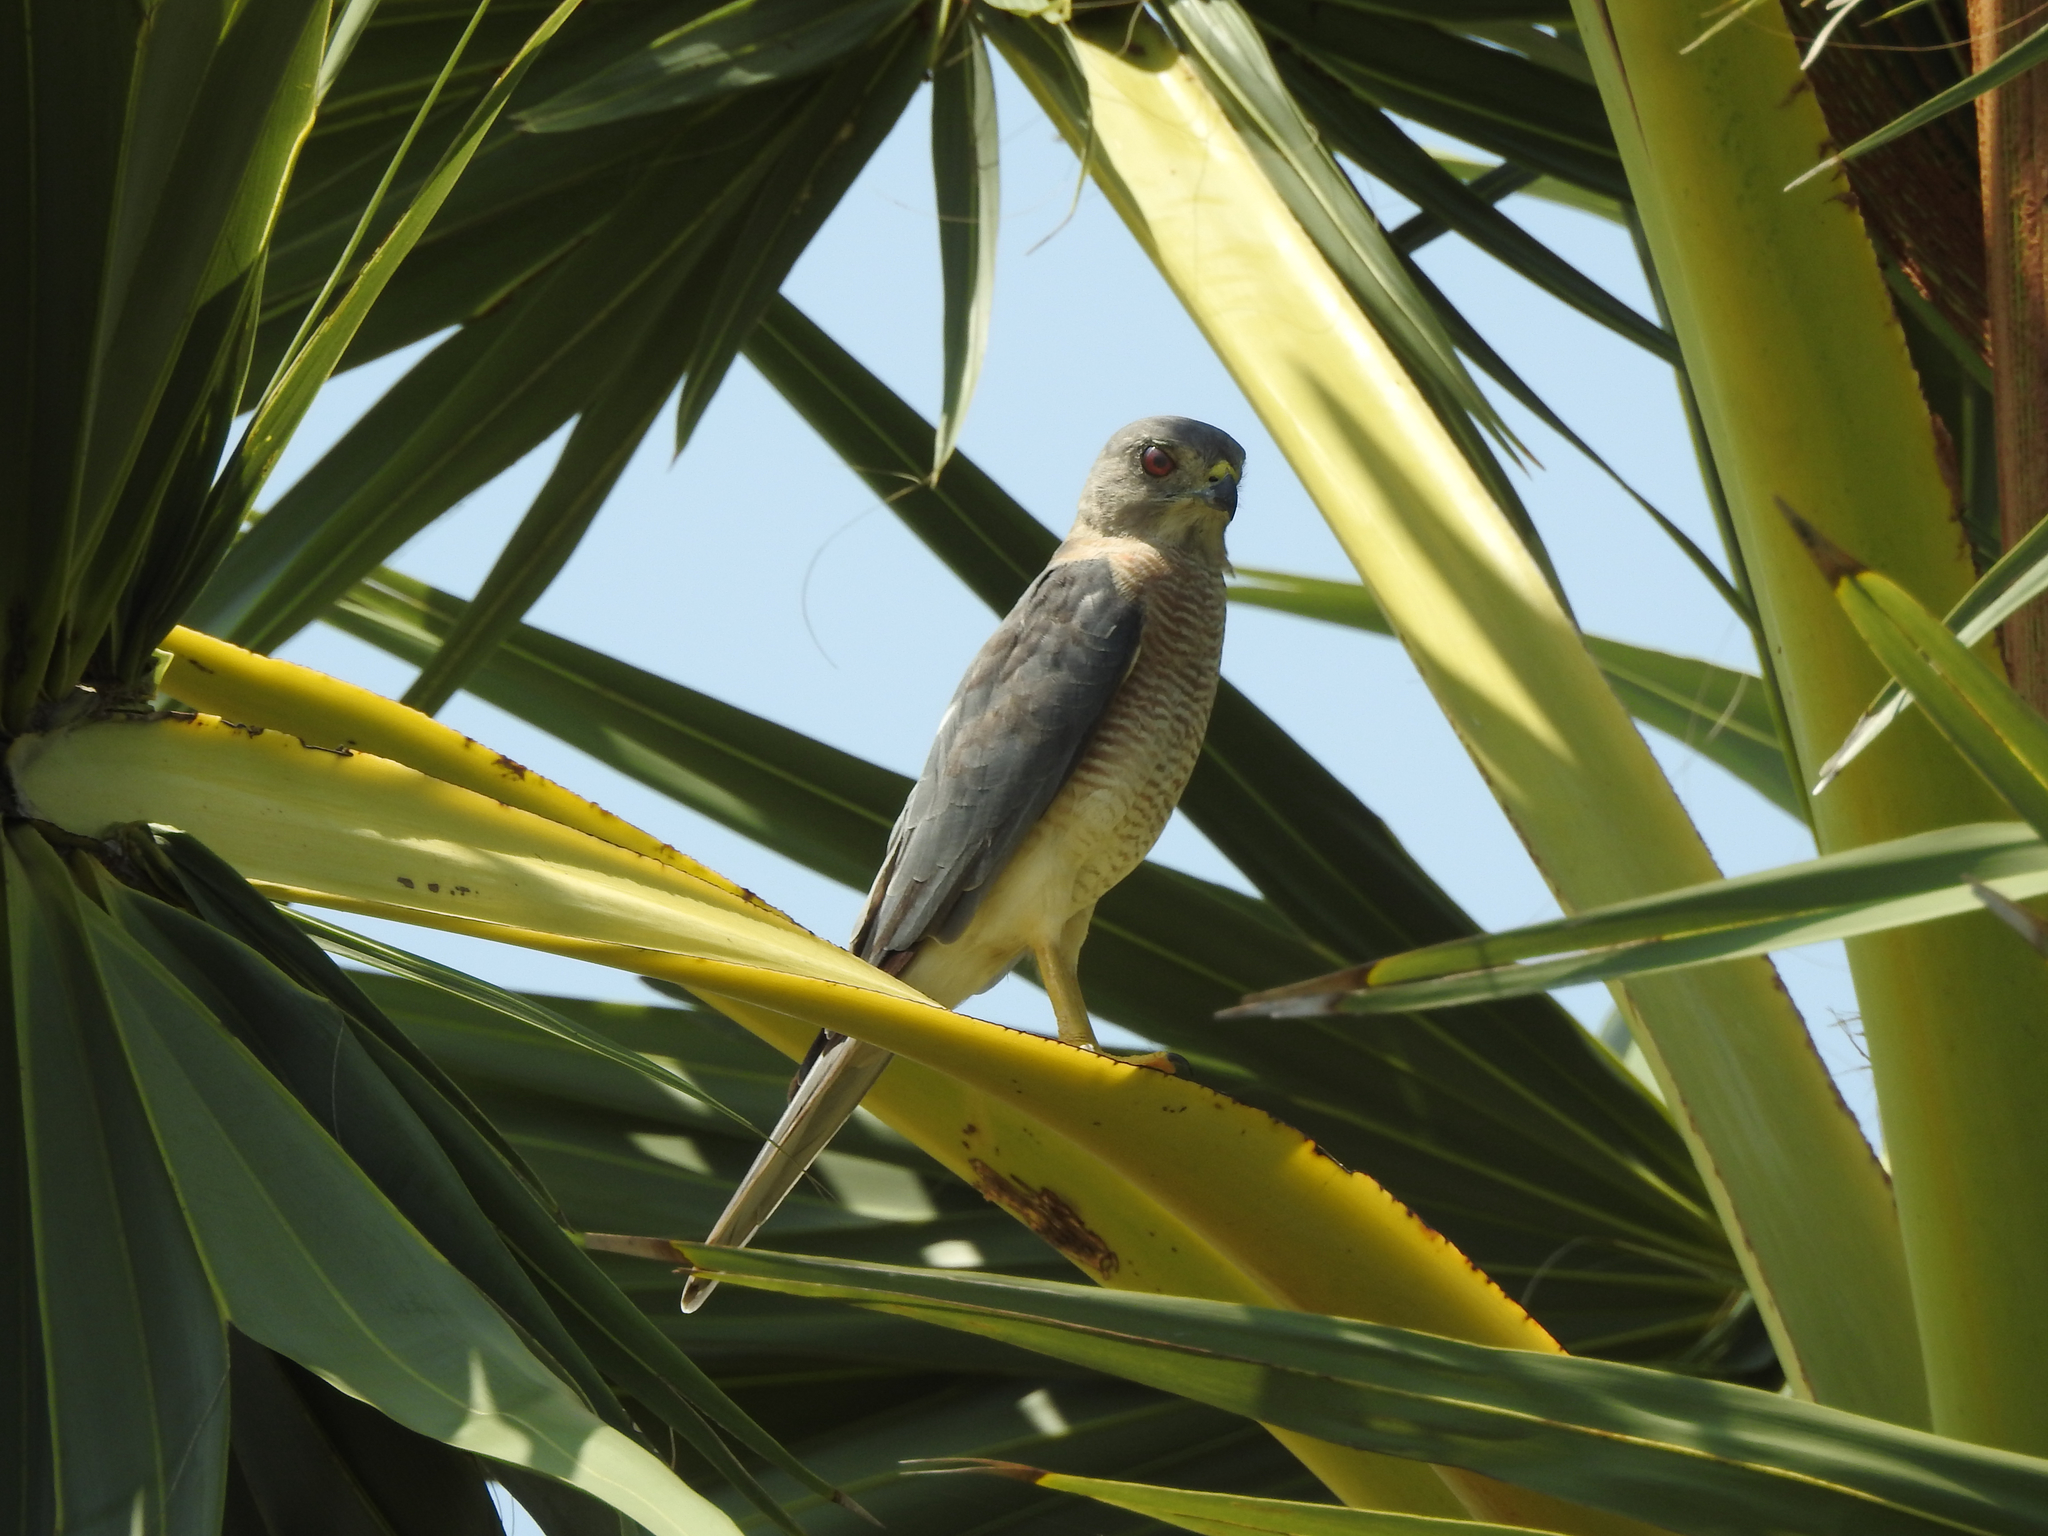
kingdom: Animalia
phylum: Chordata
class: Aves
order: Accipitriformes
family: Accipitridae
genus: Accipiter
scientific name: Accipiter badius
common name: Shikra
